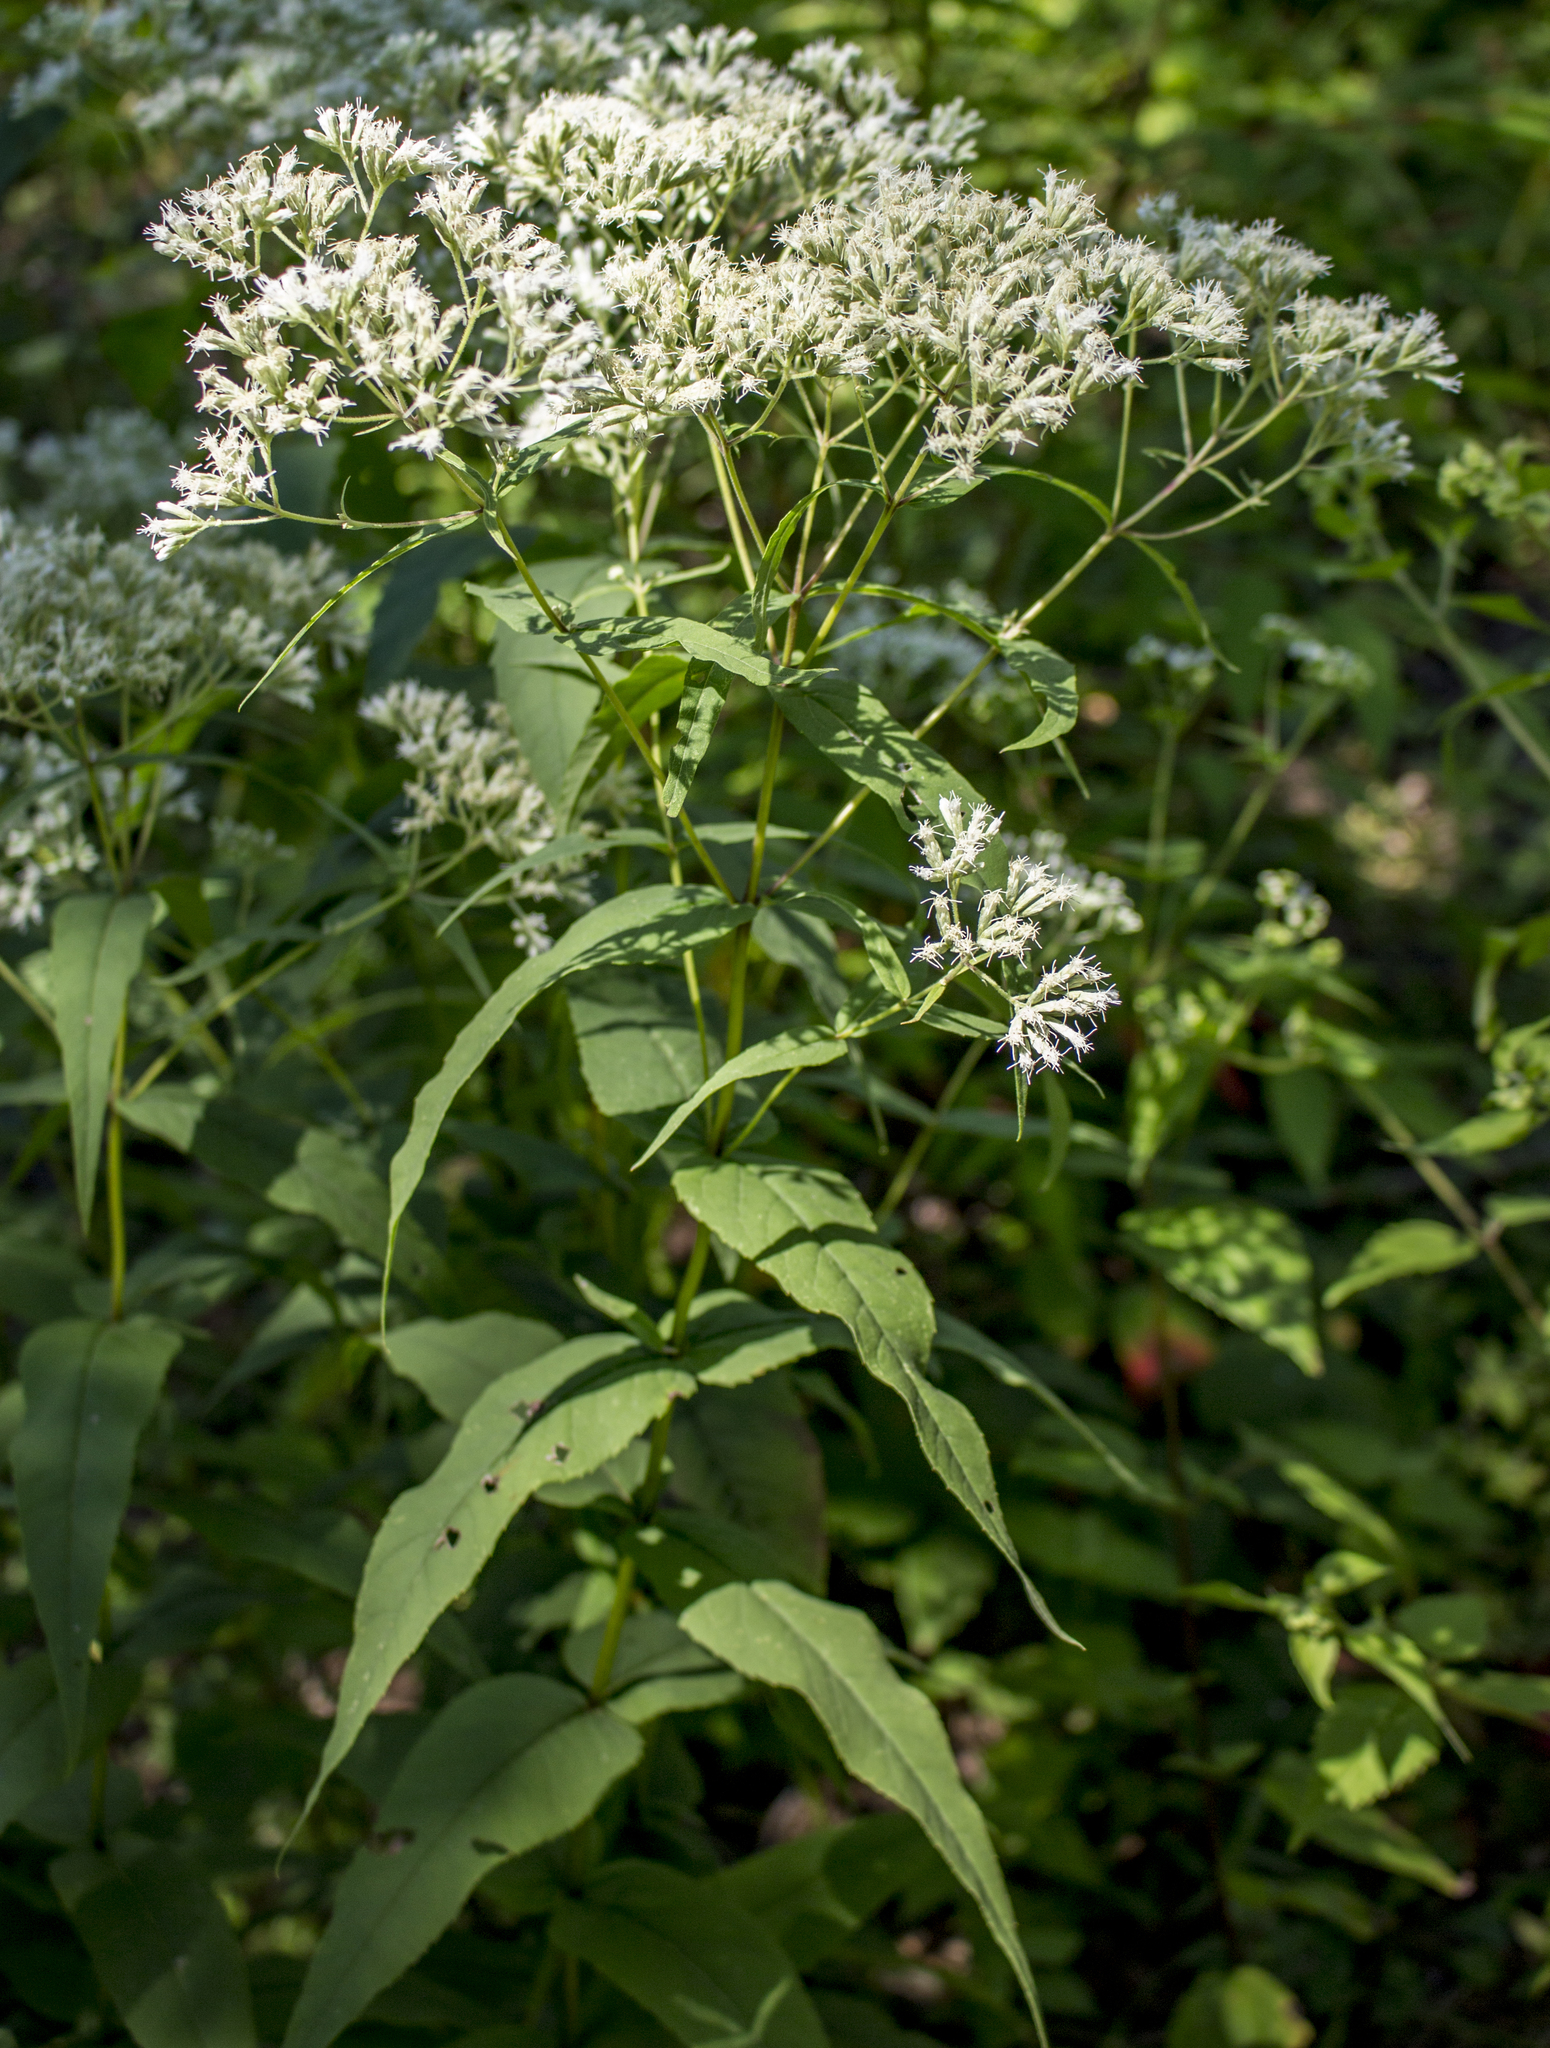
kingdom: Plantae
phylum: Tracheophyta
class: Magnoliopsida
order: Asterales
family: Asteraceae
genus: Eupatorium
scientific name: Eupatorium sessilifolium
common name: Upland boneset
